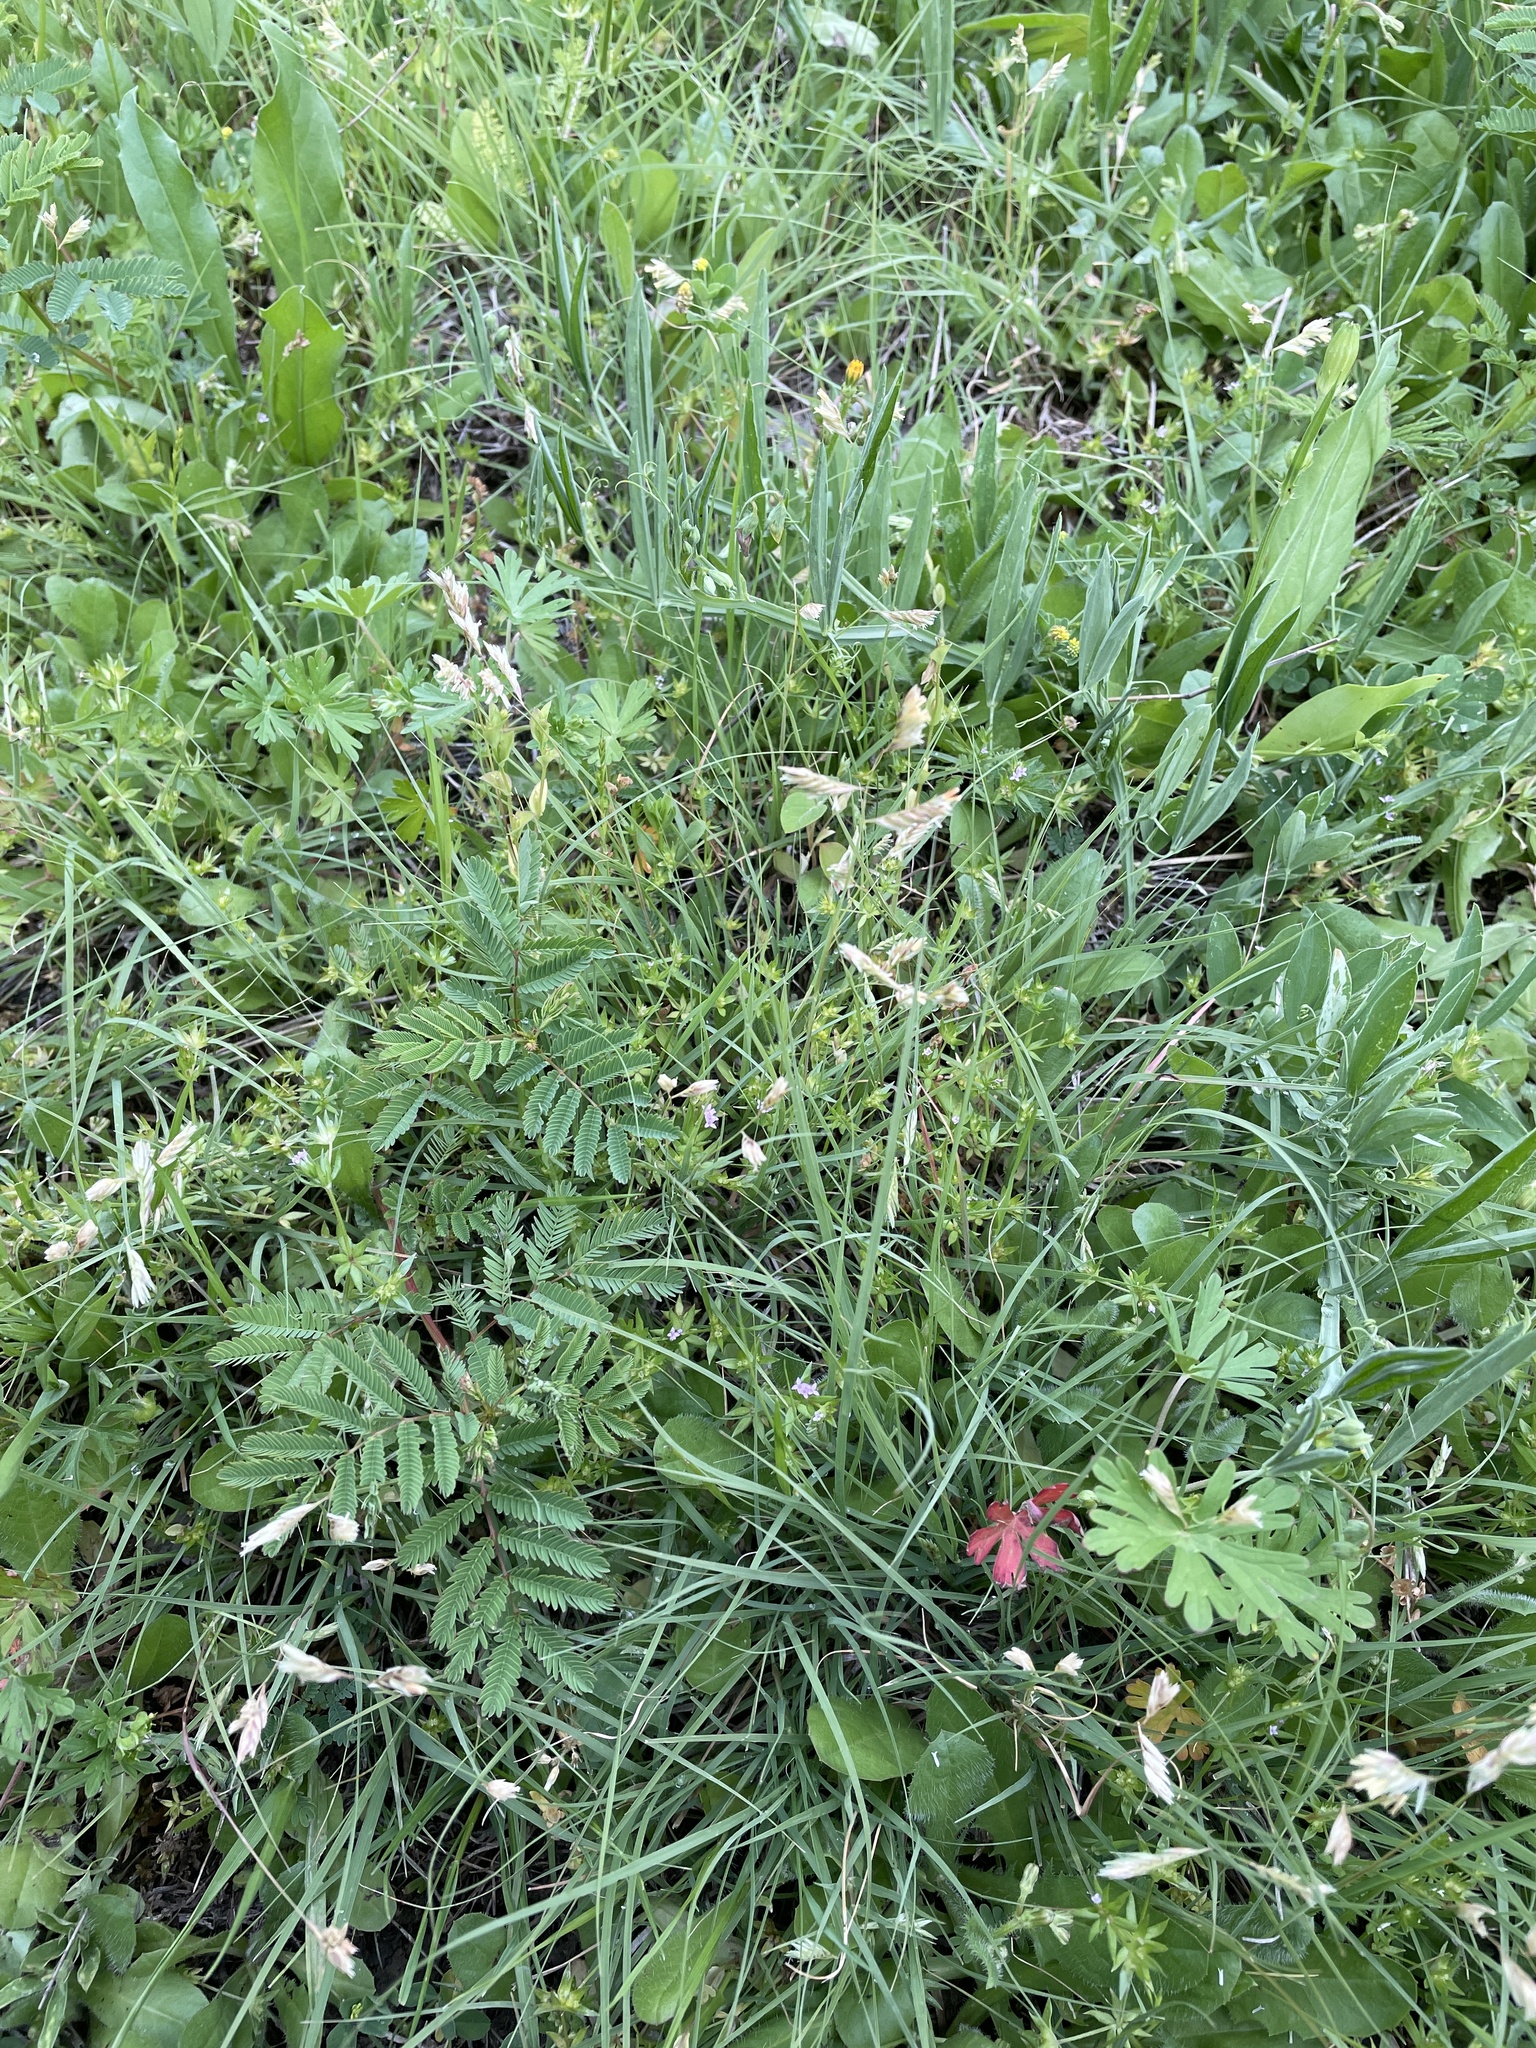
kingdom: Plantae
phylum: Tracheophyta
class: Liliopsida
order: Poales
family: Poaceae
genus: Bouteloua
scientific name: Bouteloua dactyloides
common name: Buffalo grass
